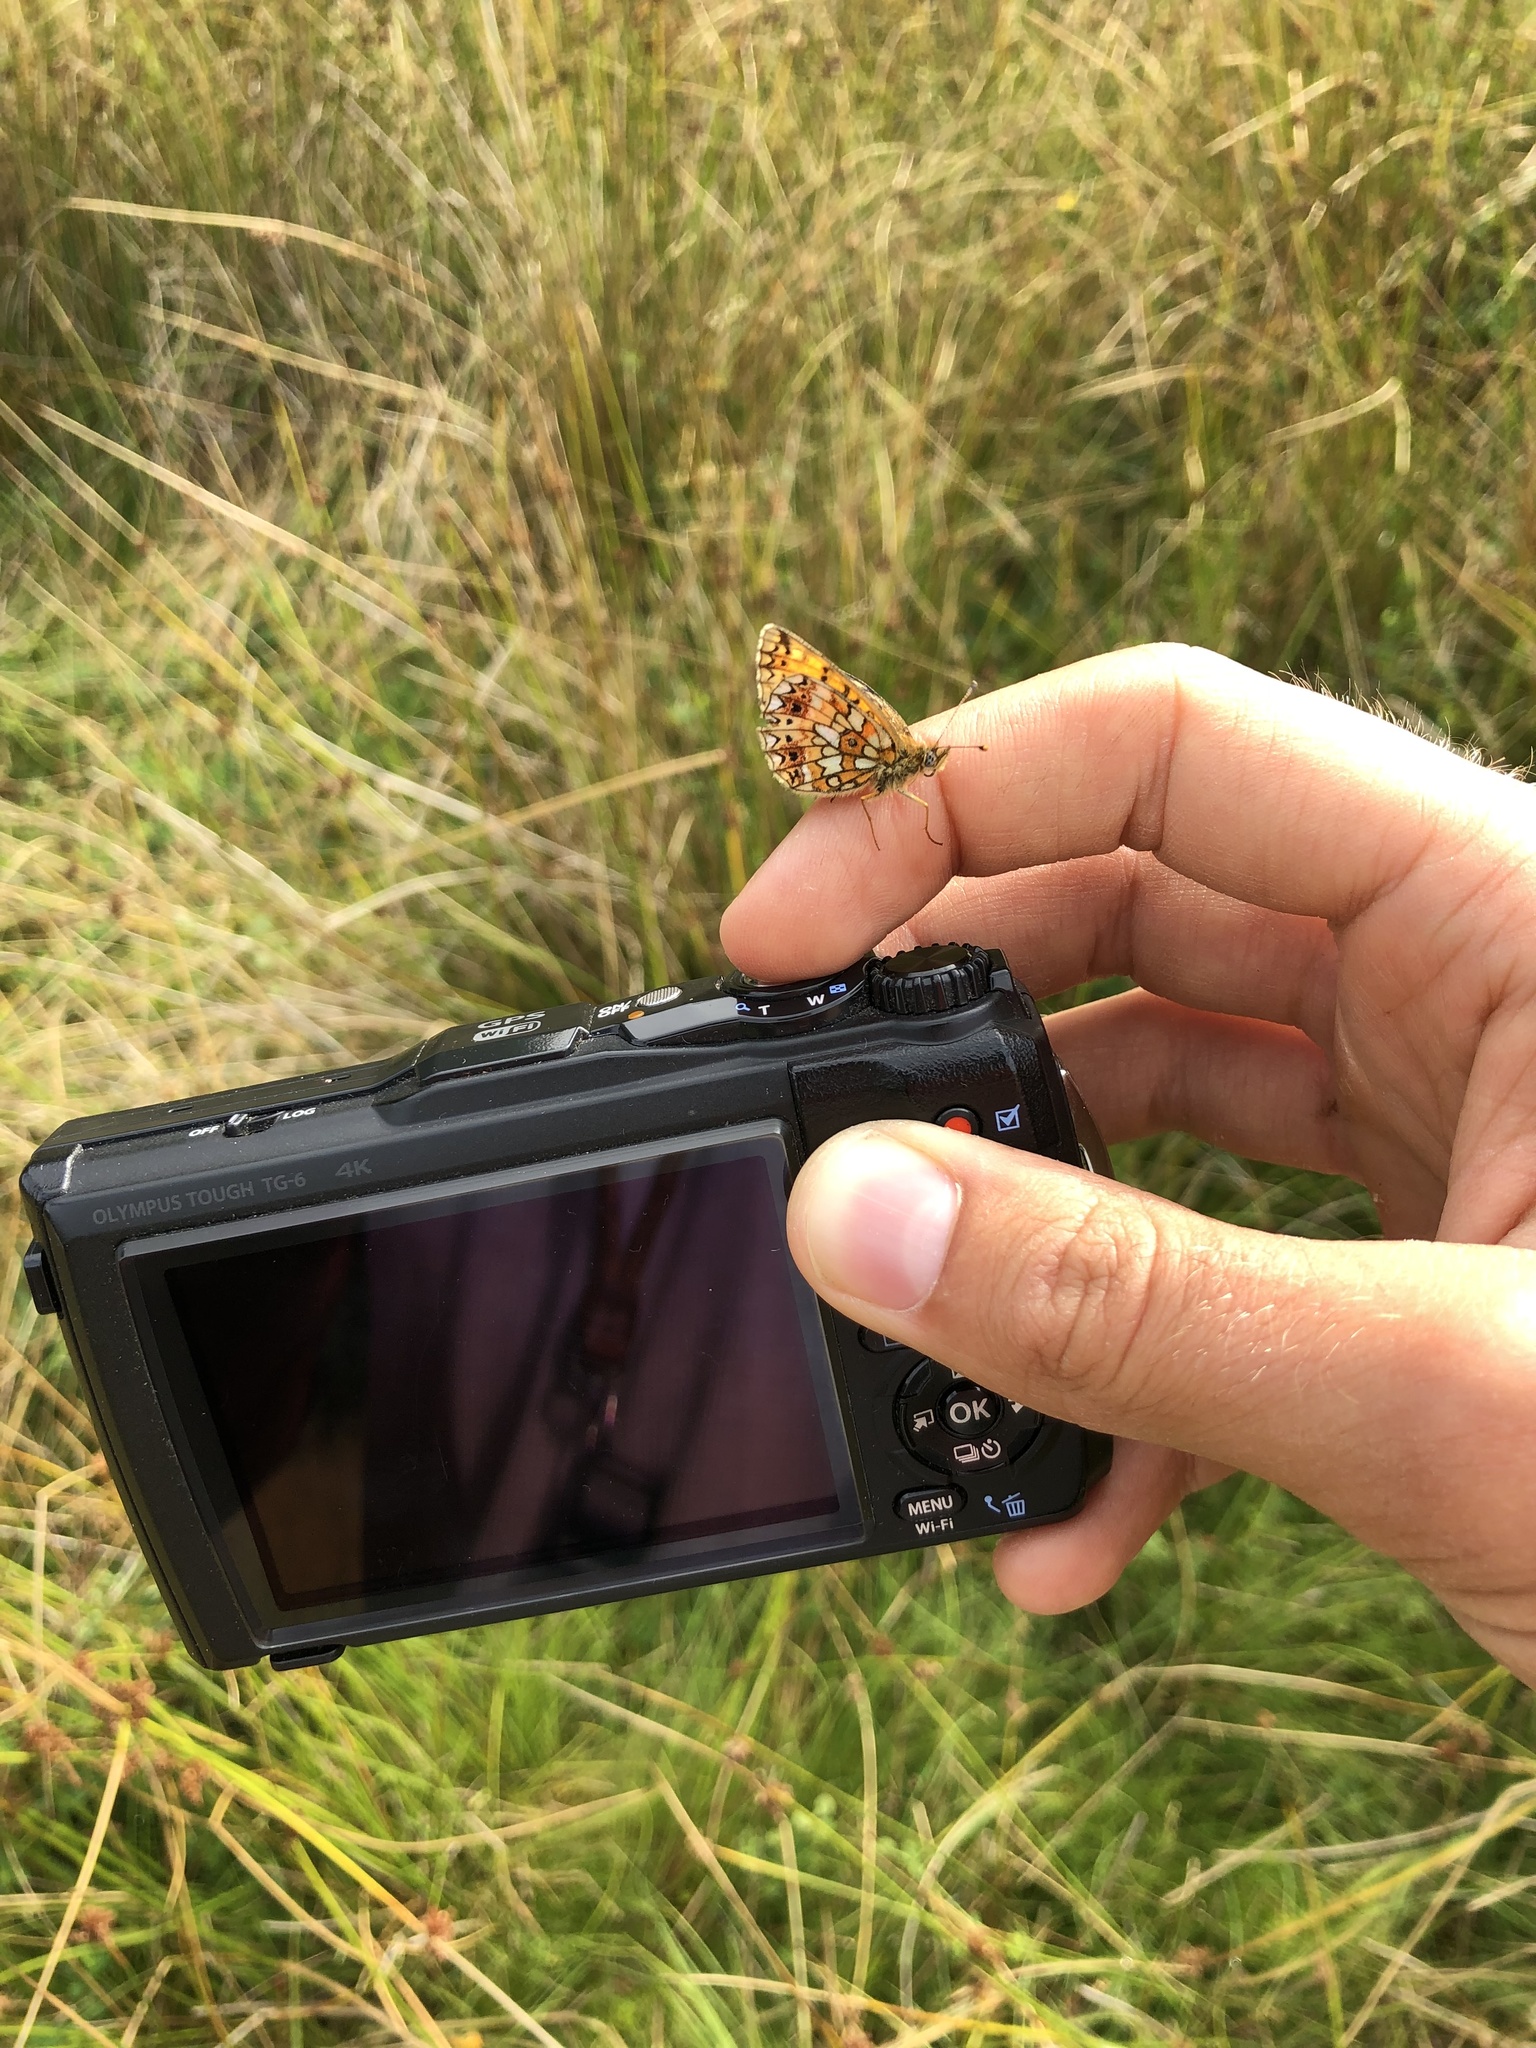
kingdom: Animalia
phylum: Arthropoda
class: Insecta
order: Lepidoptera
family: Nymphalidae
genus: Boloria
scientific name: Boloria selene
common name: Small pearl-bordered fritillary
